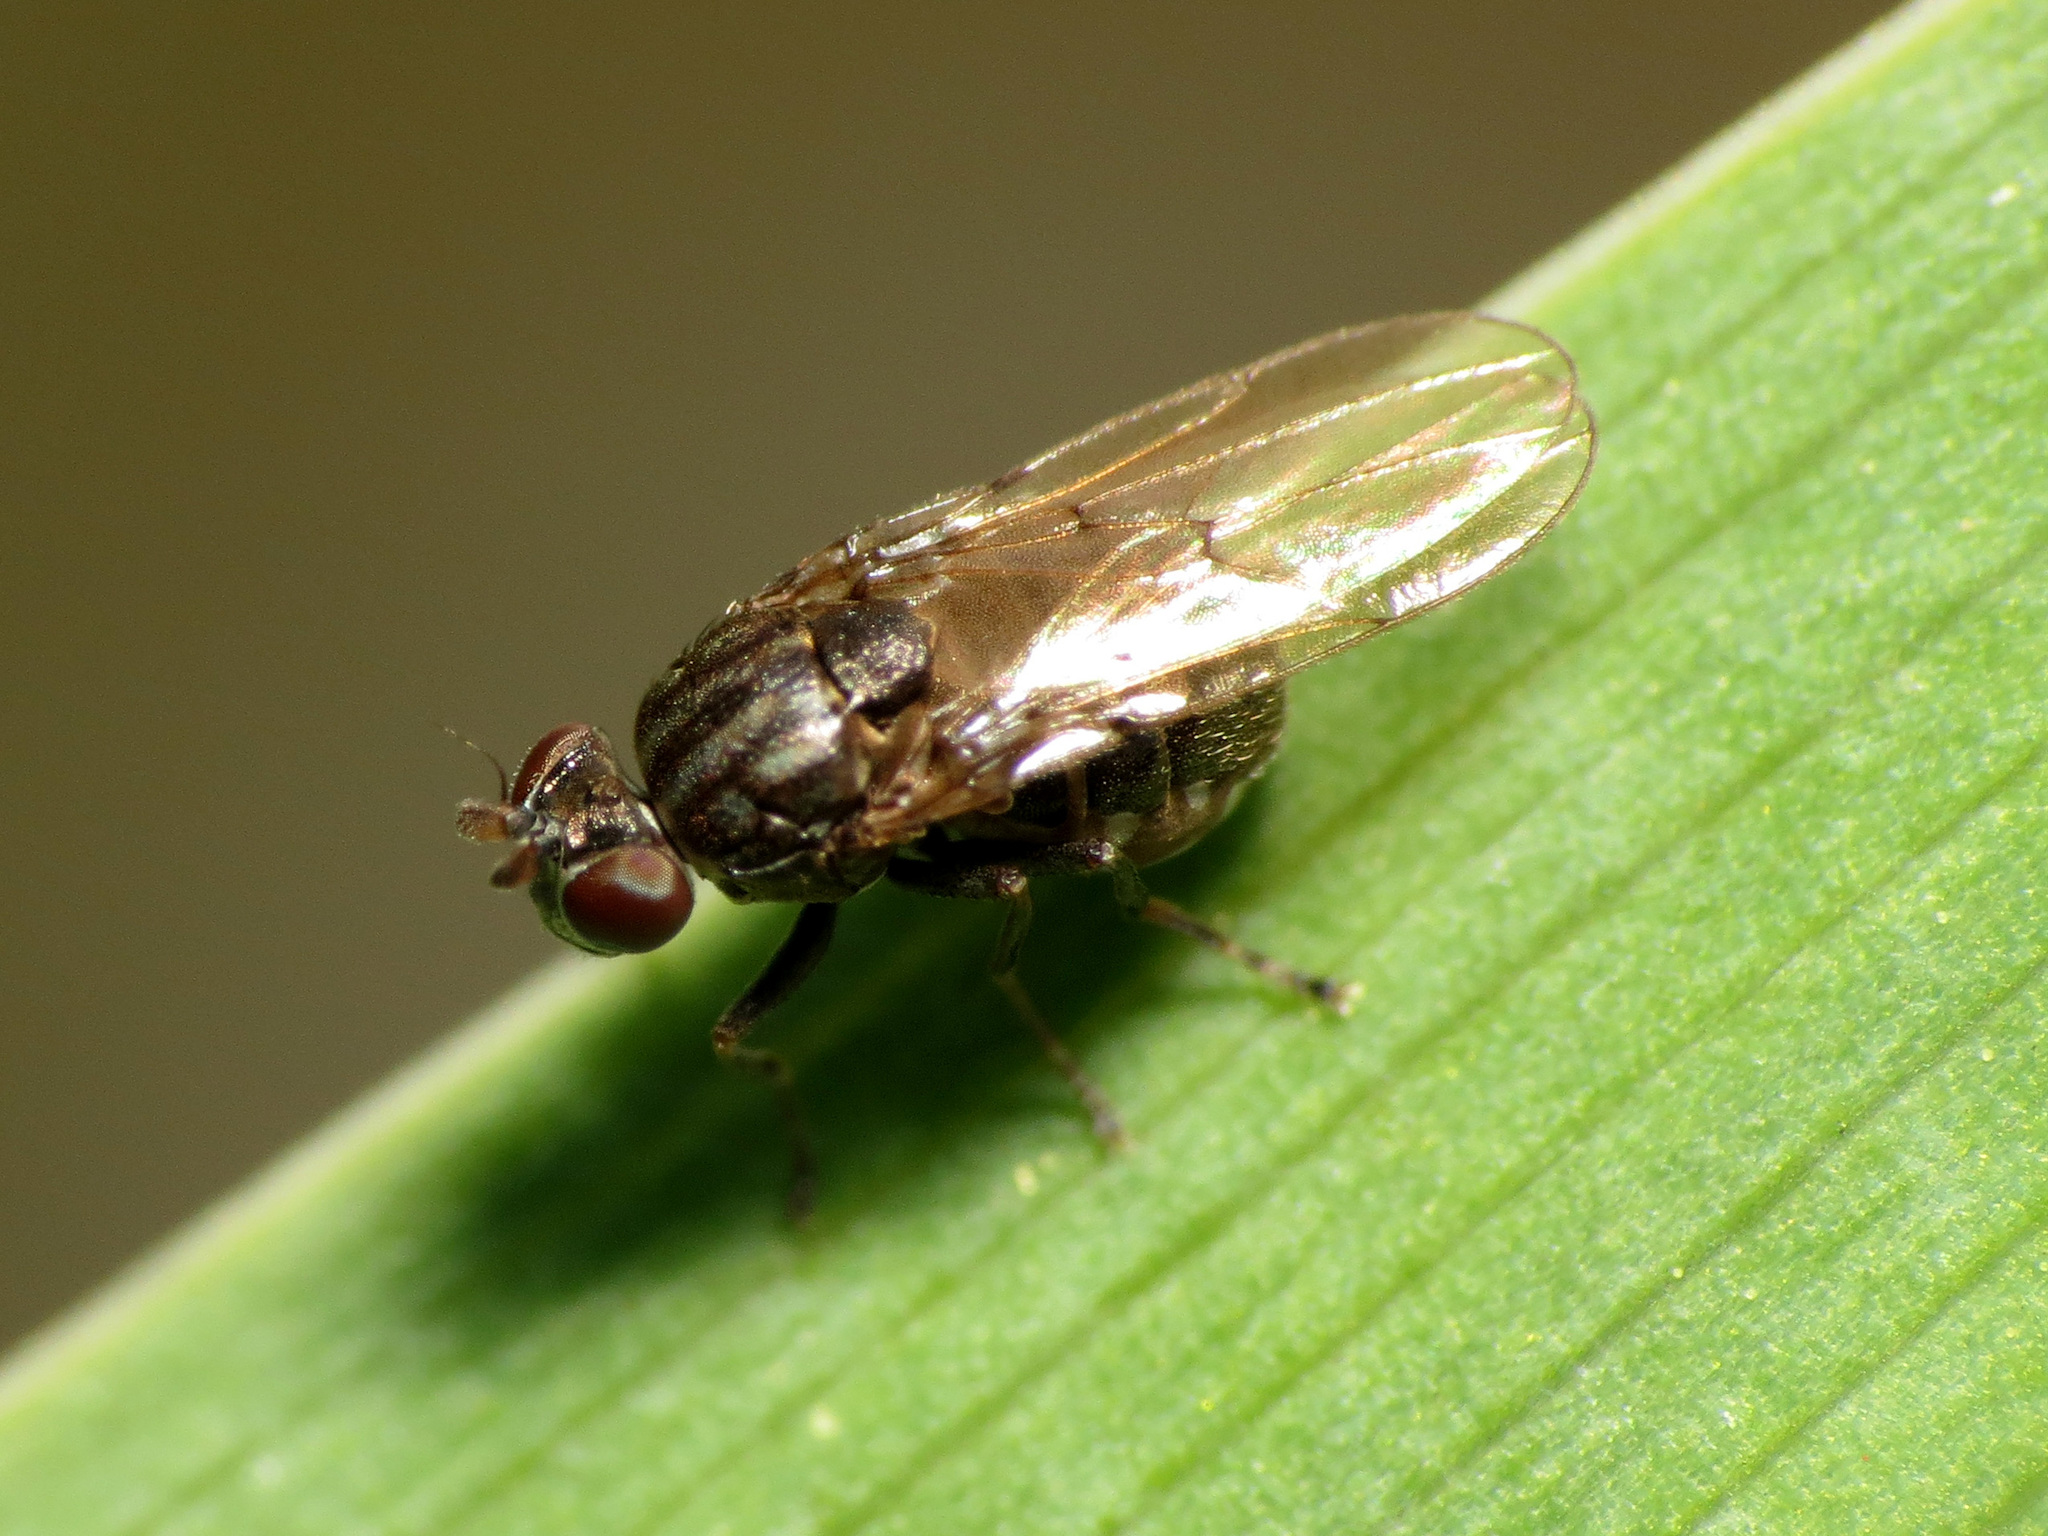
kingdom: Animalia
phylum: Arthropoda
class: Insecta
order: Diptera
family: Ephydridae
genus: Lytogaster
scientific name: Lytogaster excavata
